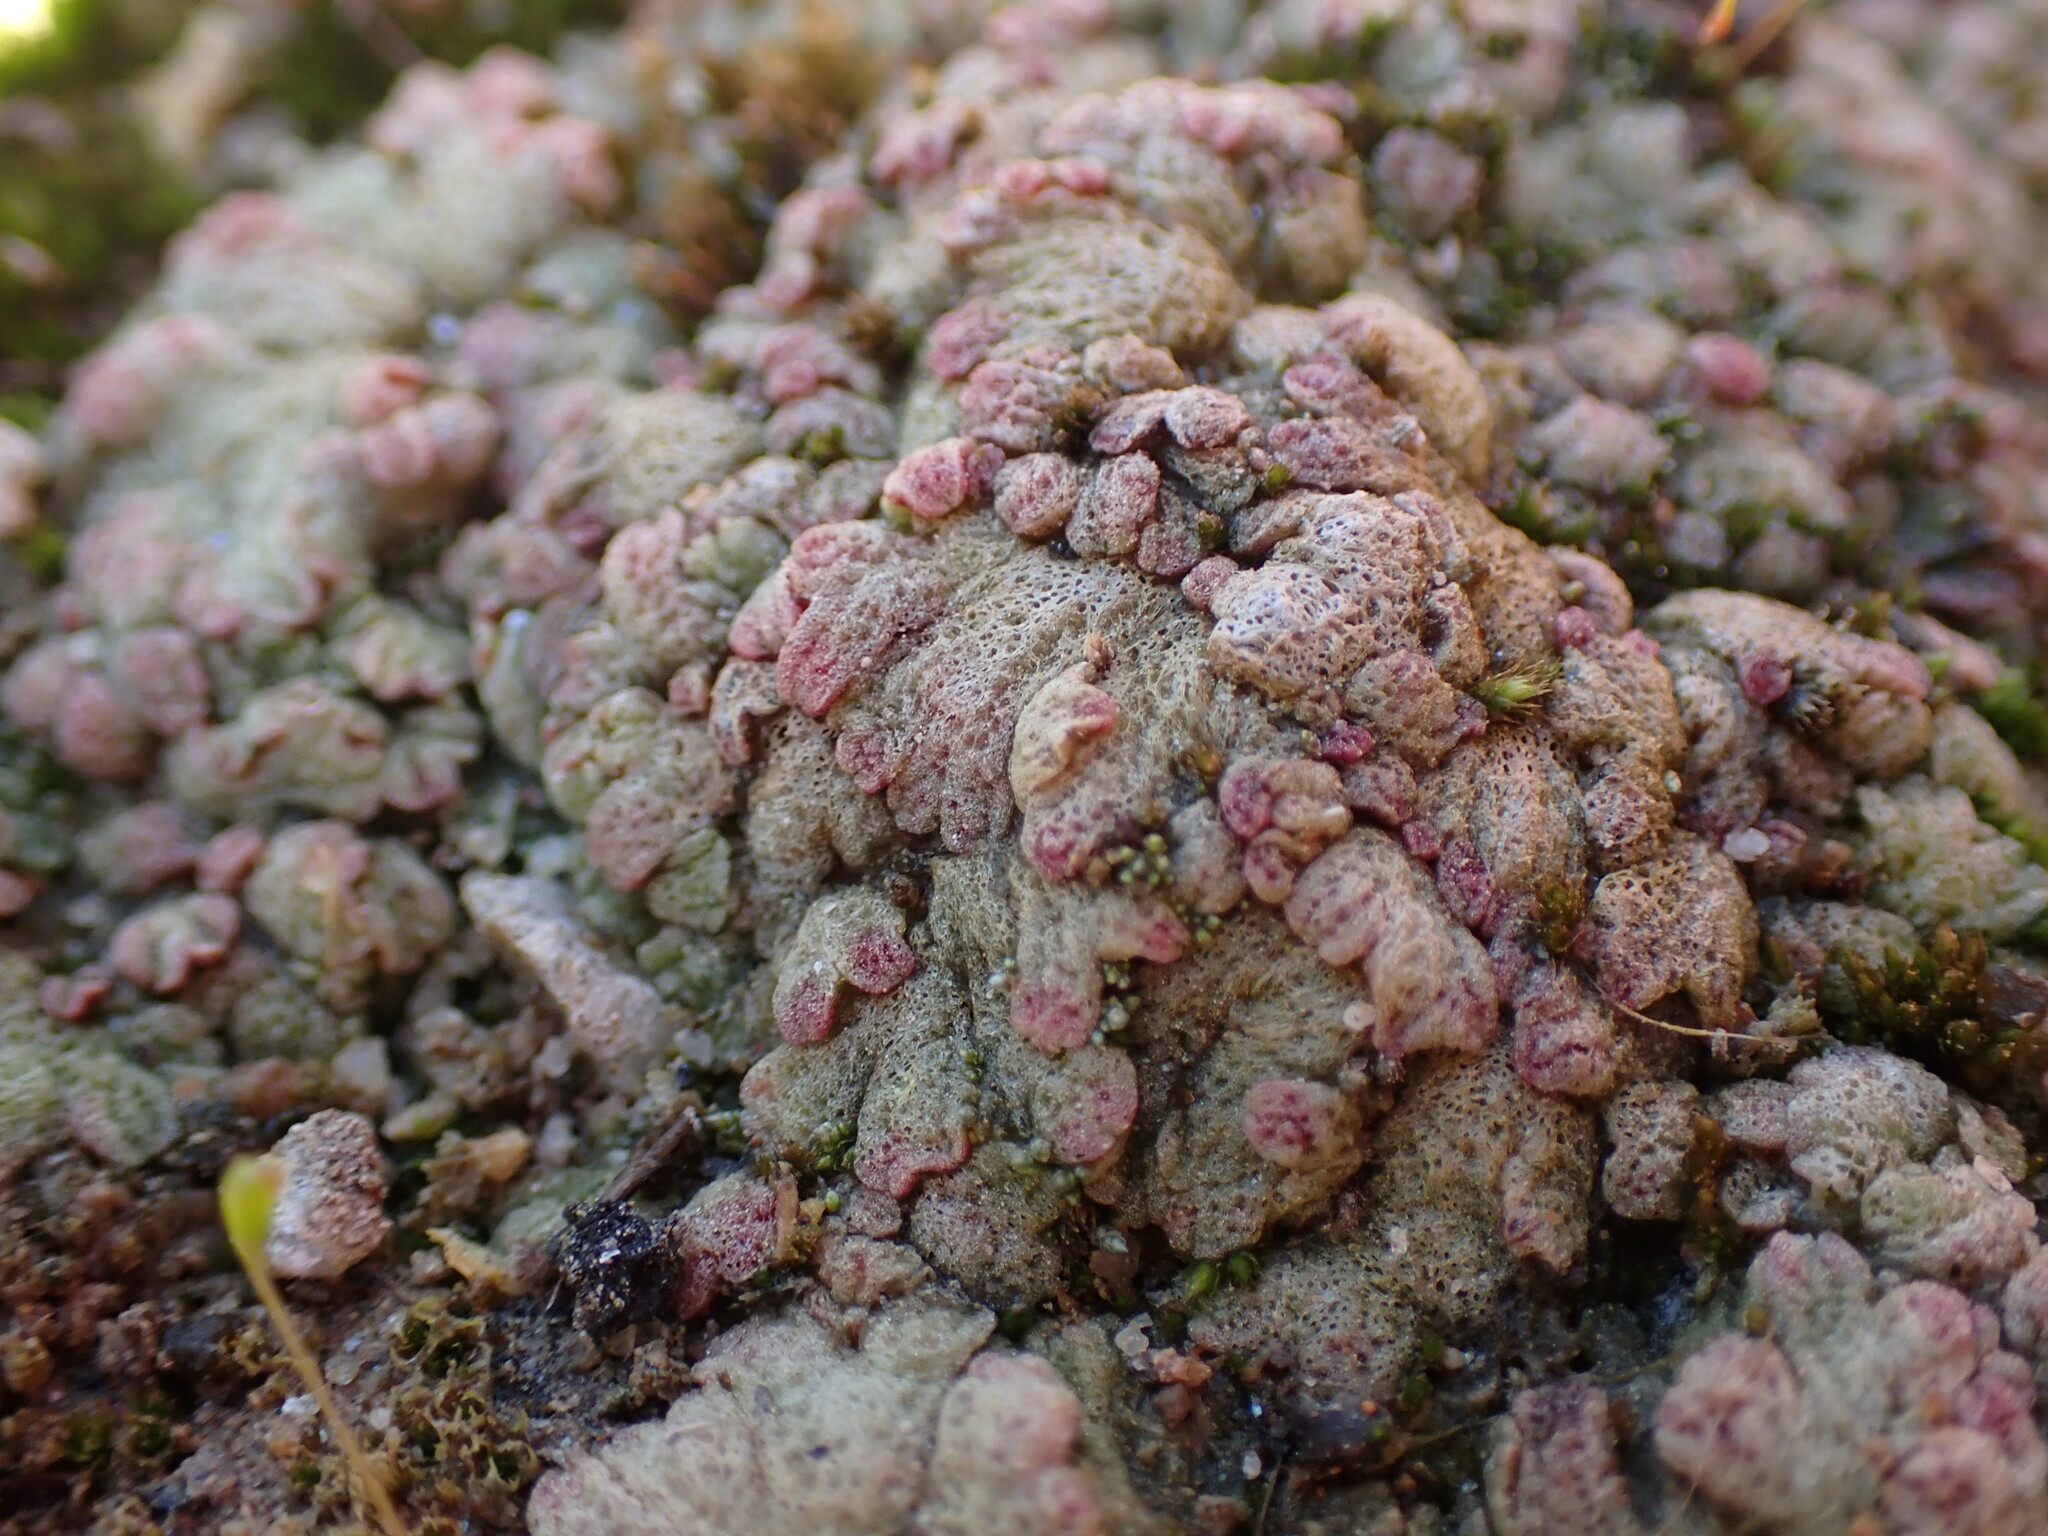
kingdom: Plantae
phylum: Marchantiophyta
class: Marchantiopsida
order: Marchantiales
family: Ricciaceae
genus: Riccia
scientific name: Riccia cavernosa
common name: Cavernous crystalwort
